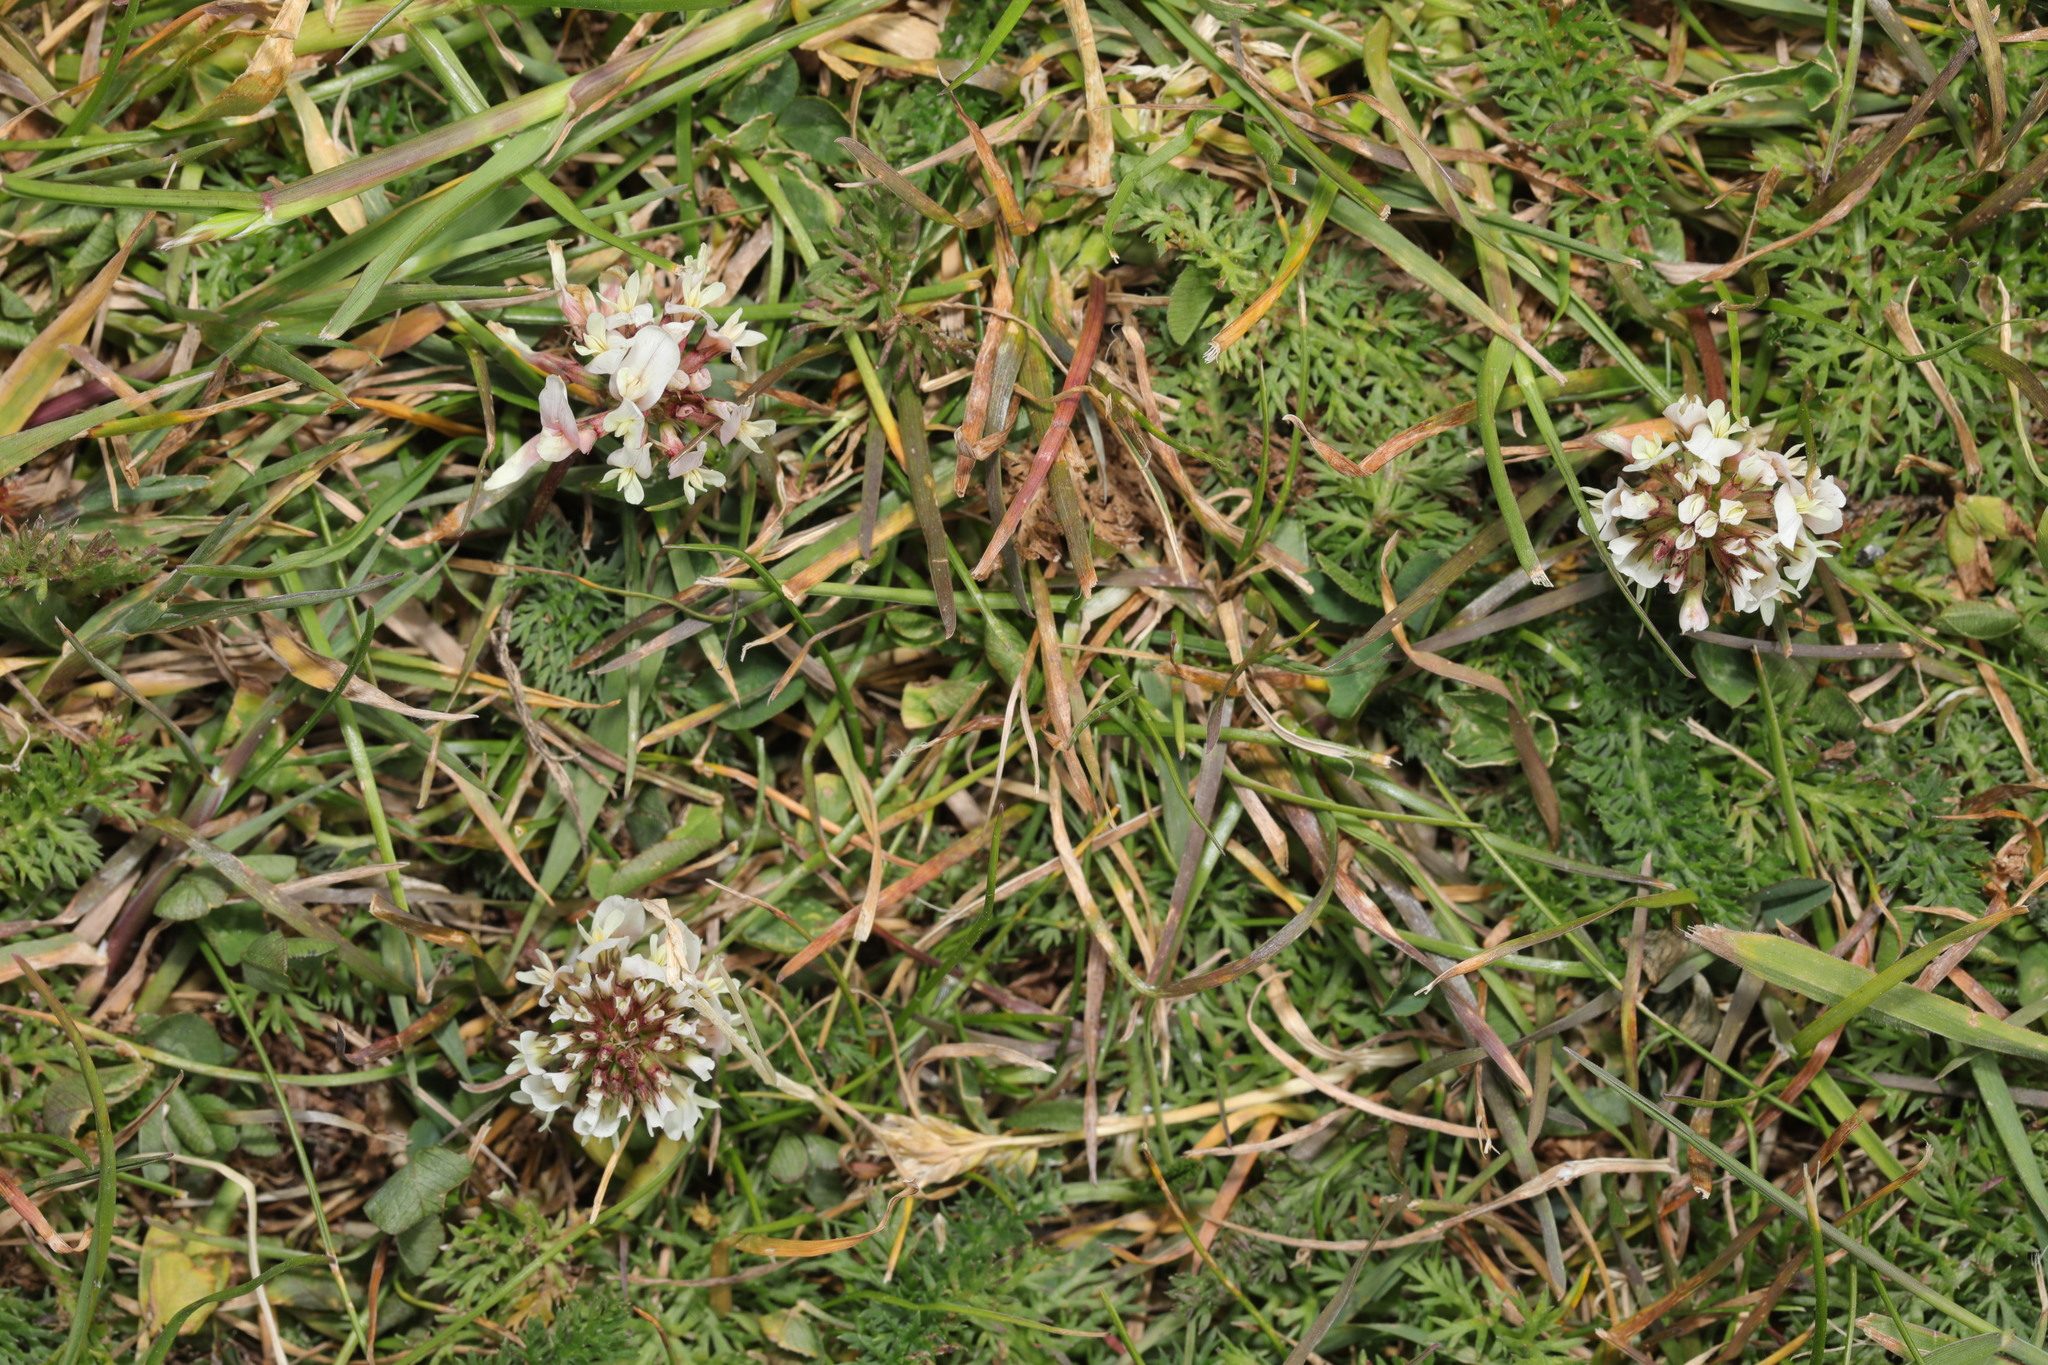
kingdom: Plantae
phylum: Tracheophyta
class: Magnoliopsida
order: Fabales
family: Fabaceae
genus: Trifolium
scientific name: Trifolium repens
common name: White clover
